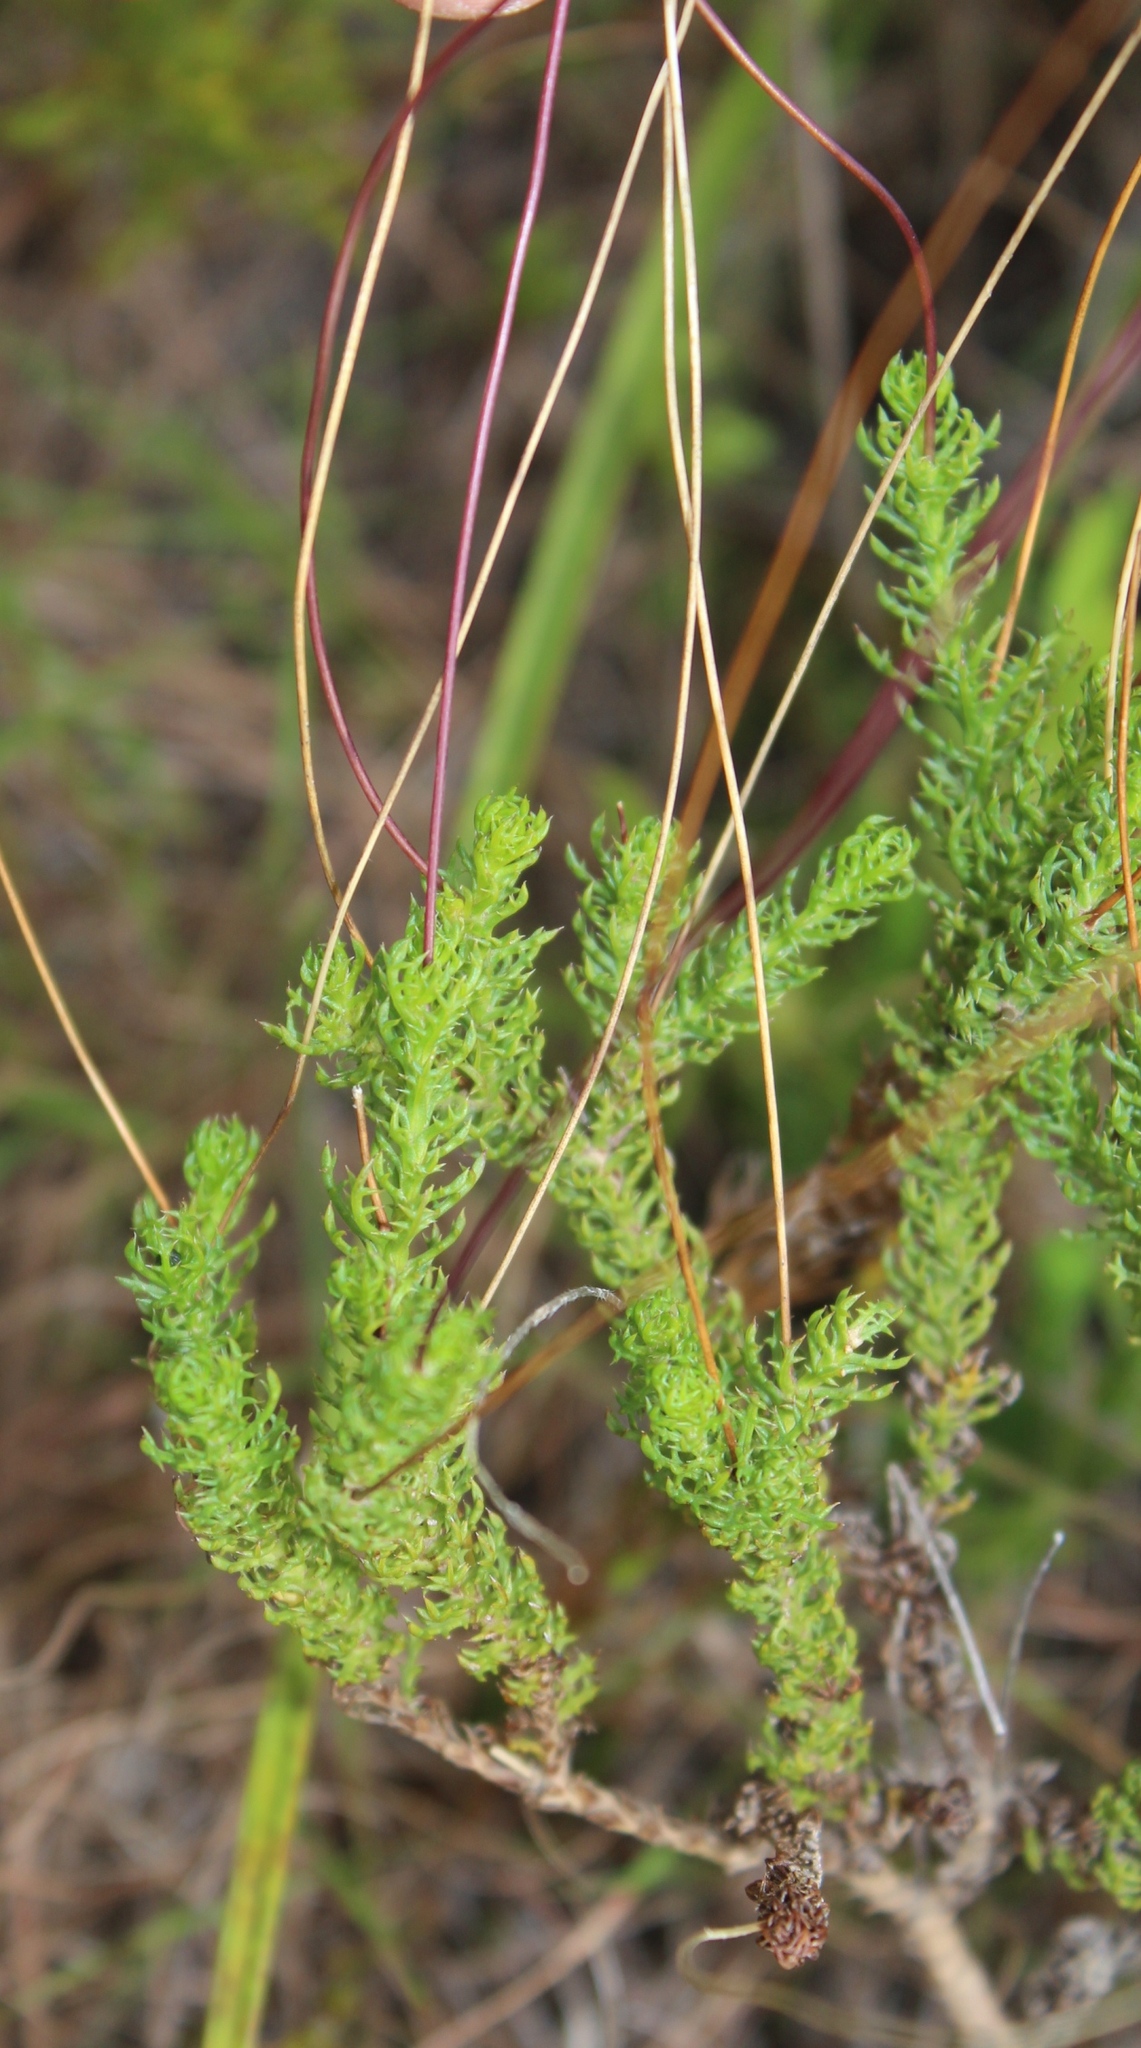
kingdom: Plantae
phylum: Tracheophyta
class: Magnoliopsida
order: Asterales
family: Asteraceae
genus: Euryops
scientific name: Euryops munitus
